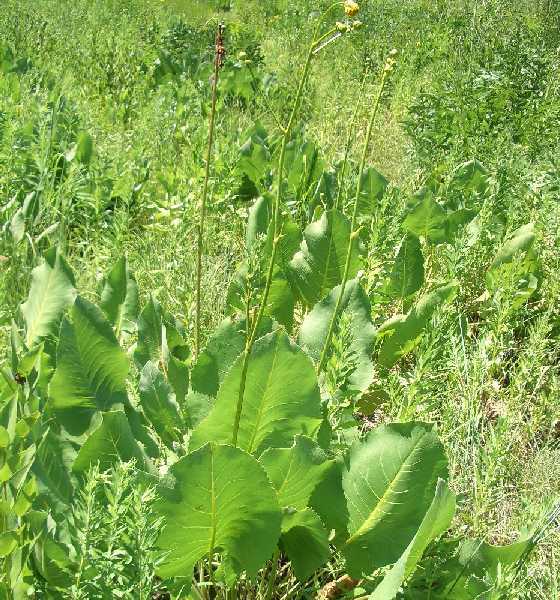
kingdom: Plantae
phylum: Tracheophyta
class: Magnoliopsida
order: Asterales
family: Asteraceae
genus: Silphium
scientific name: Silphium terebinthinaceum
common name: Basal-leaf rosinweed
